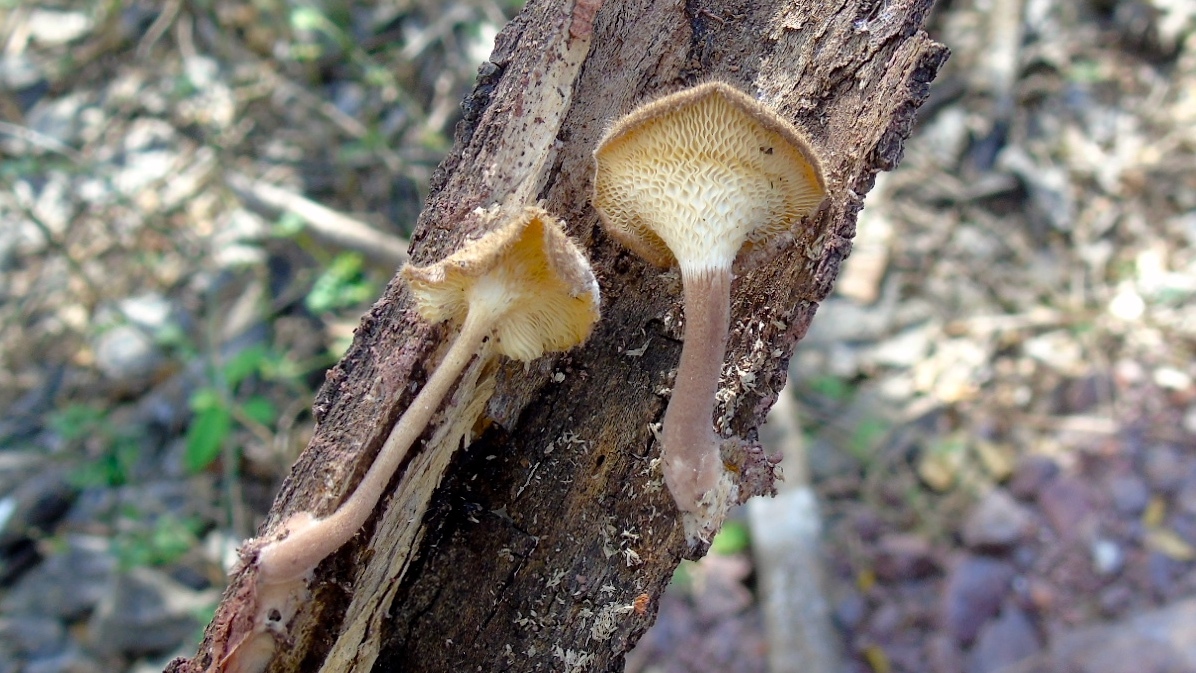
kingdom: Fungi
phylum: Basidiomycota
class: Agaricomycetes
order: Polyporales
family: Polyporaceae
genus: Lentinus
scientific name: Lentinus
